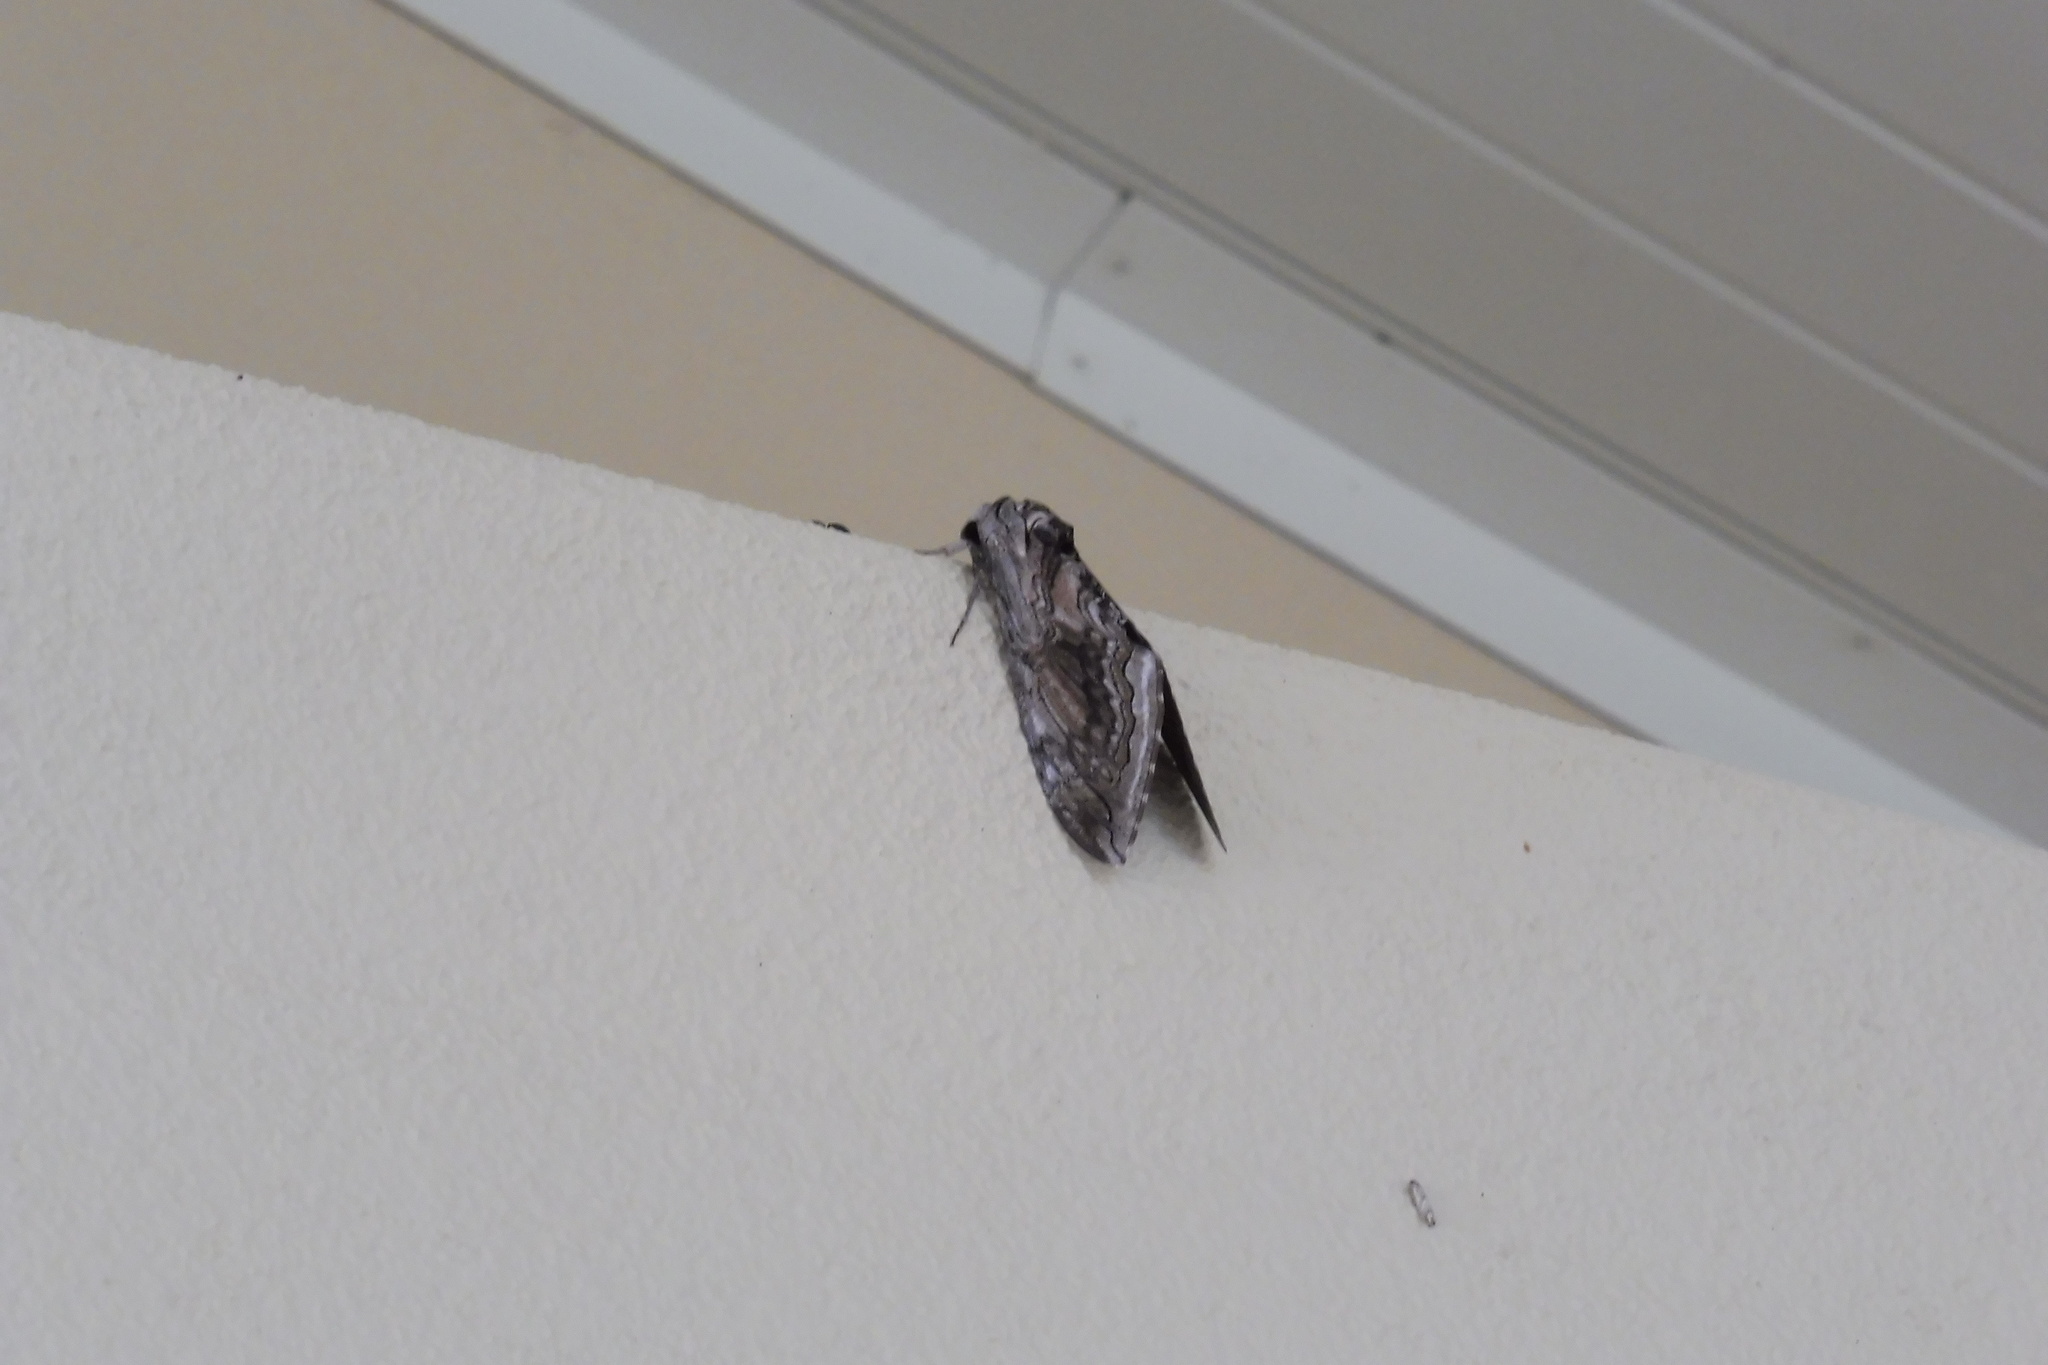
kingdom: Animalia
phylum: Arthropoda
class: Insecta
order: Lepidoptera
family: Sphingidae
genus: Manduca
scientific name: Manduca quinquemaculatus
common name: Five-spotted hawk-moth
